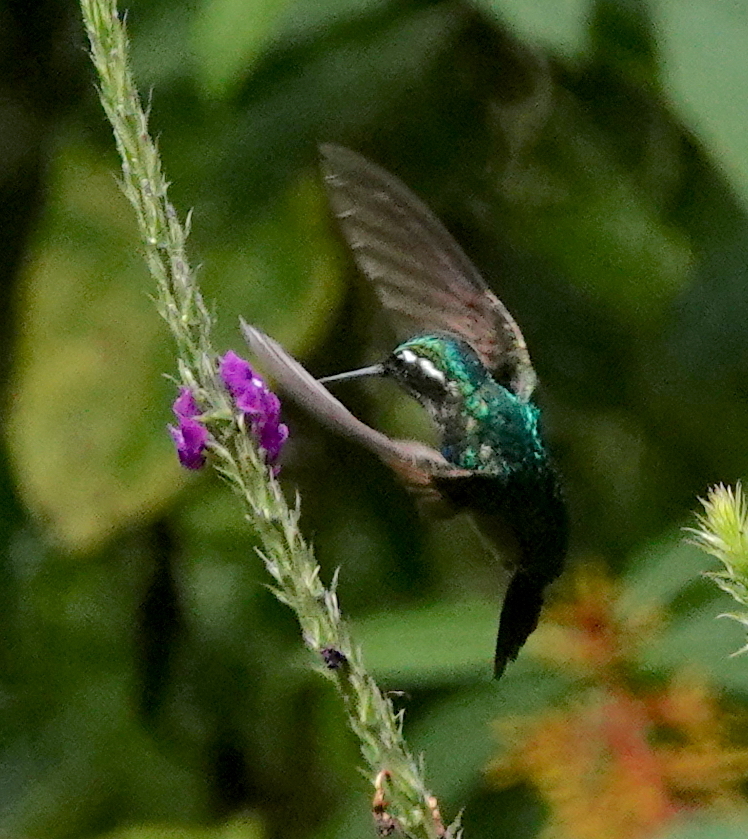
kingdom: Animalia
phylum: Chordata
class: Aves
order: Apodiformes
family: Trochilidae
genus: Lampornis
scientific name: Lampornis calolaemus
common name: Purple-throated mountain-gem
